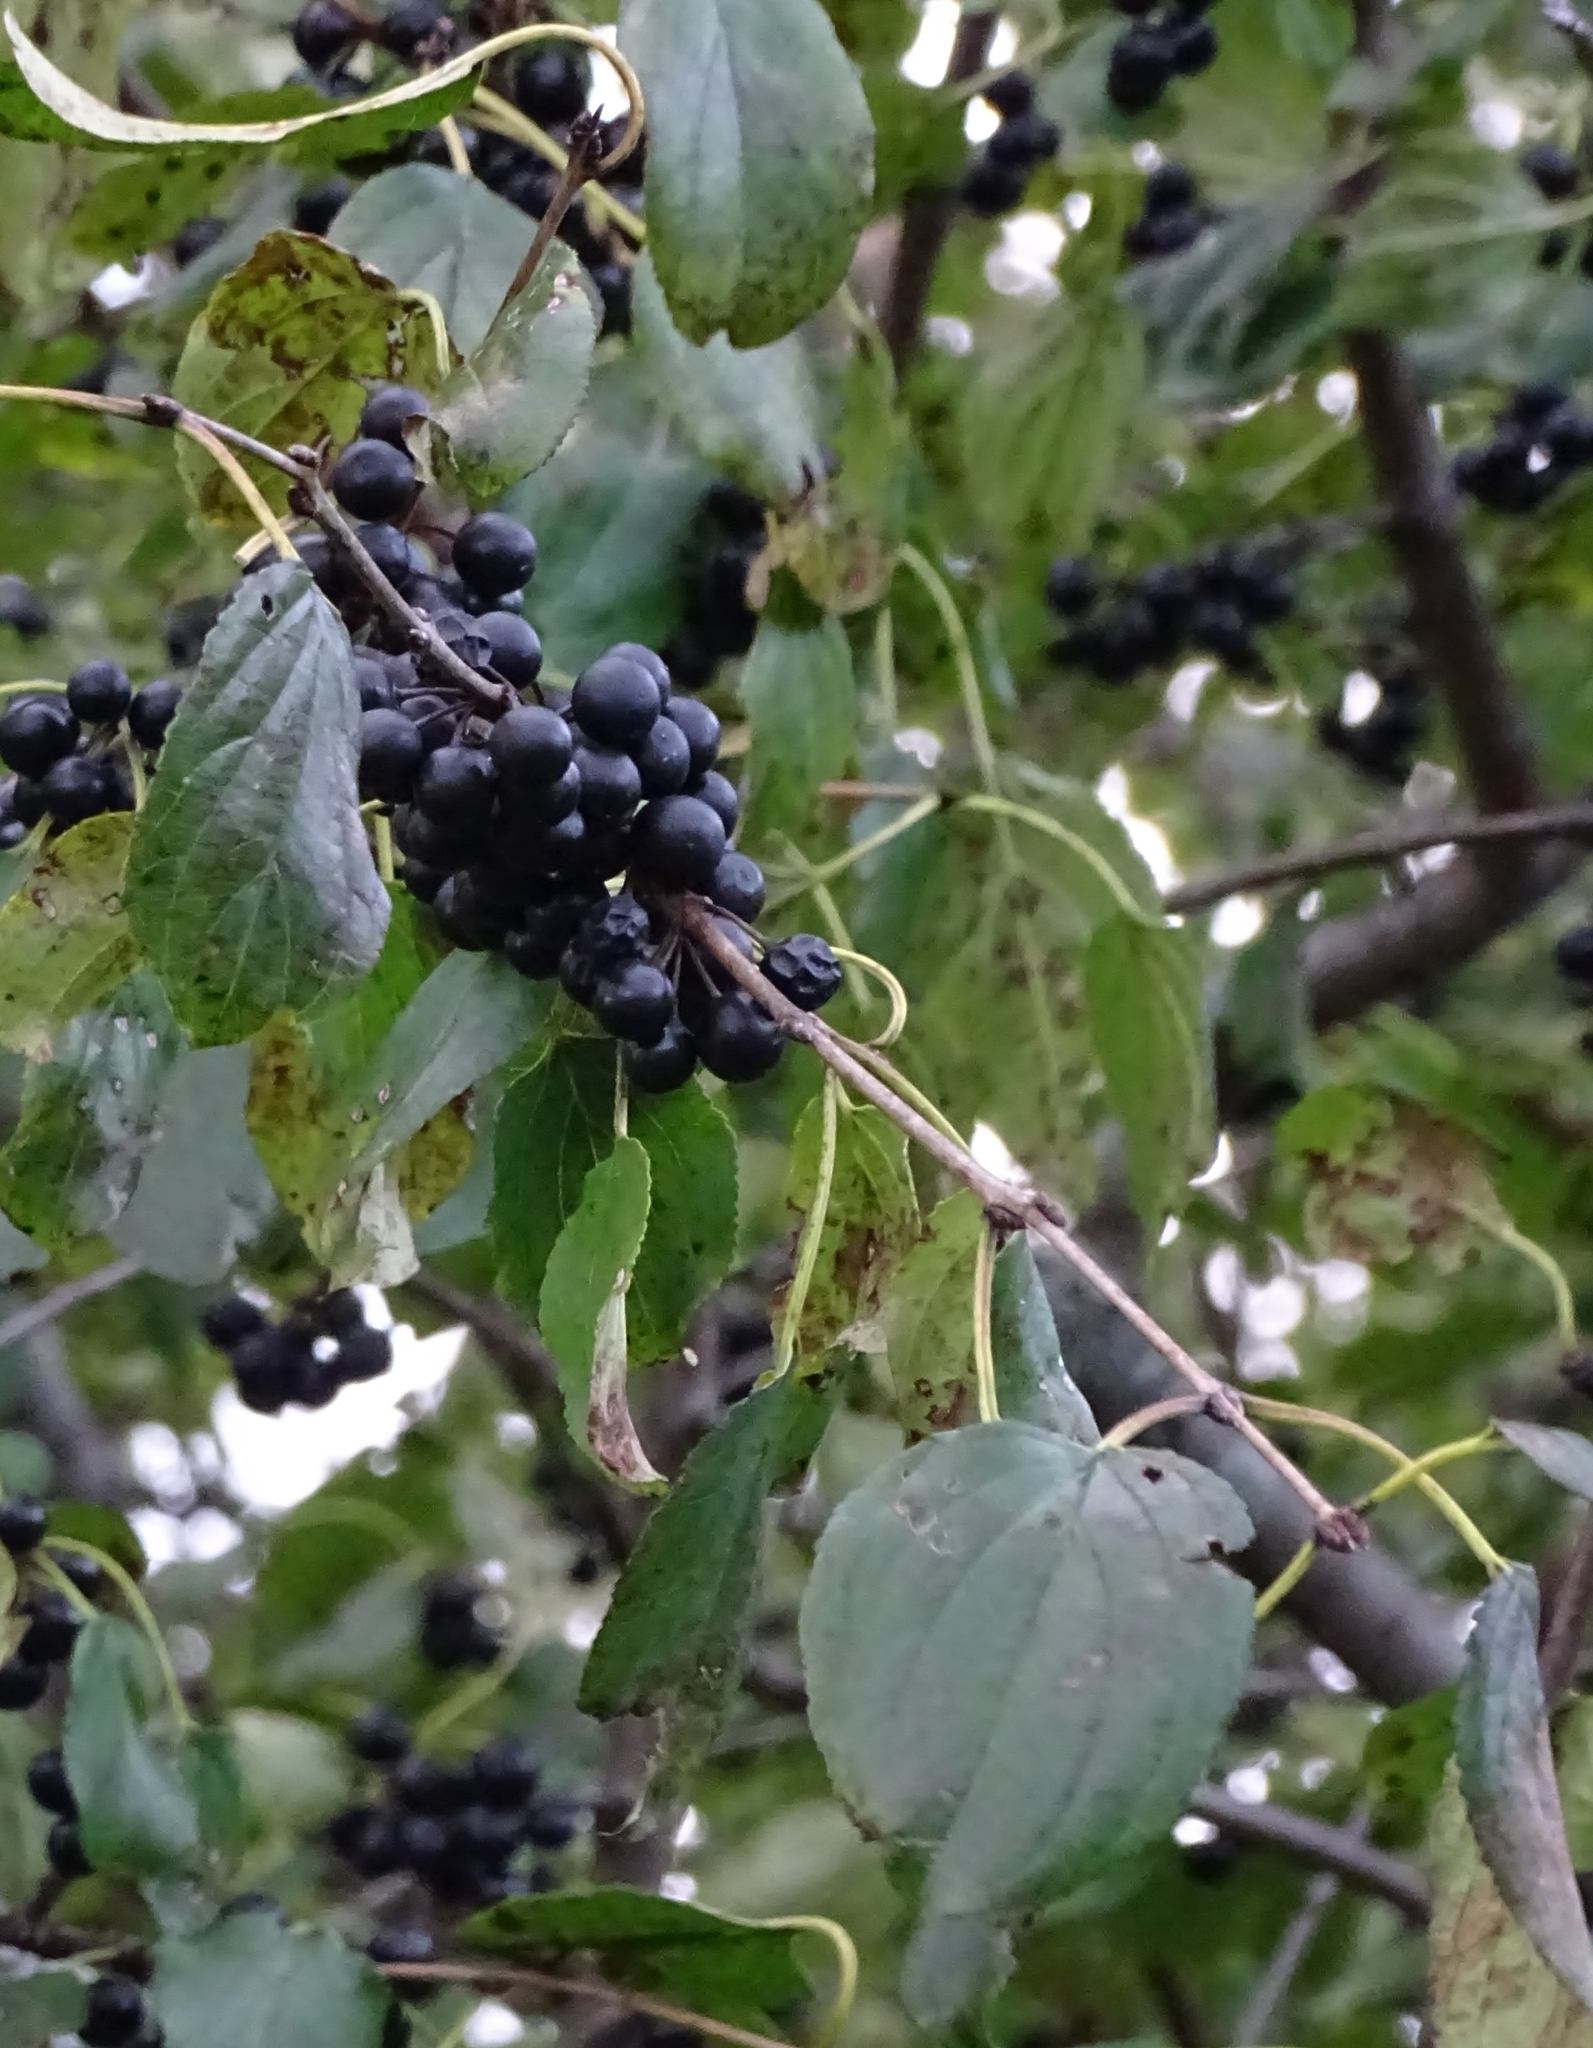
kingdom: Plantae
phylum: Tracheophyta
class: Magnoliopsida
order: Rosales
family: Rhamnaceae
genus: Rhamnus
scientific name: Rhamnus cathartica
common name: Common buckthorn
